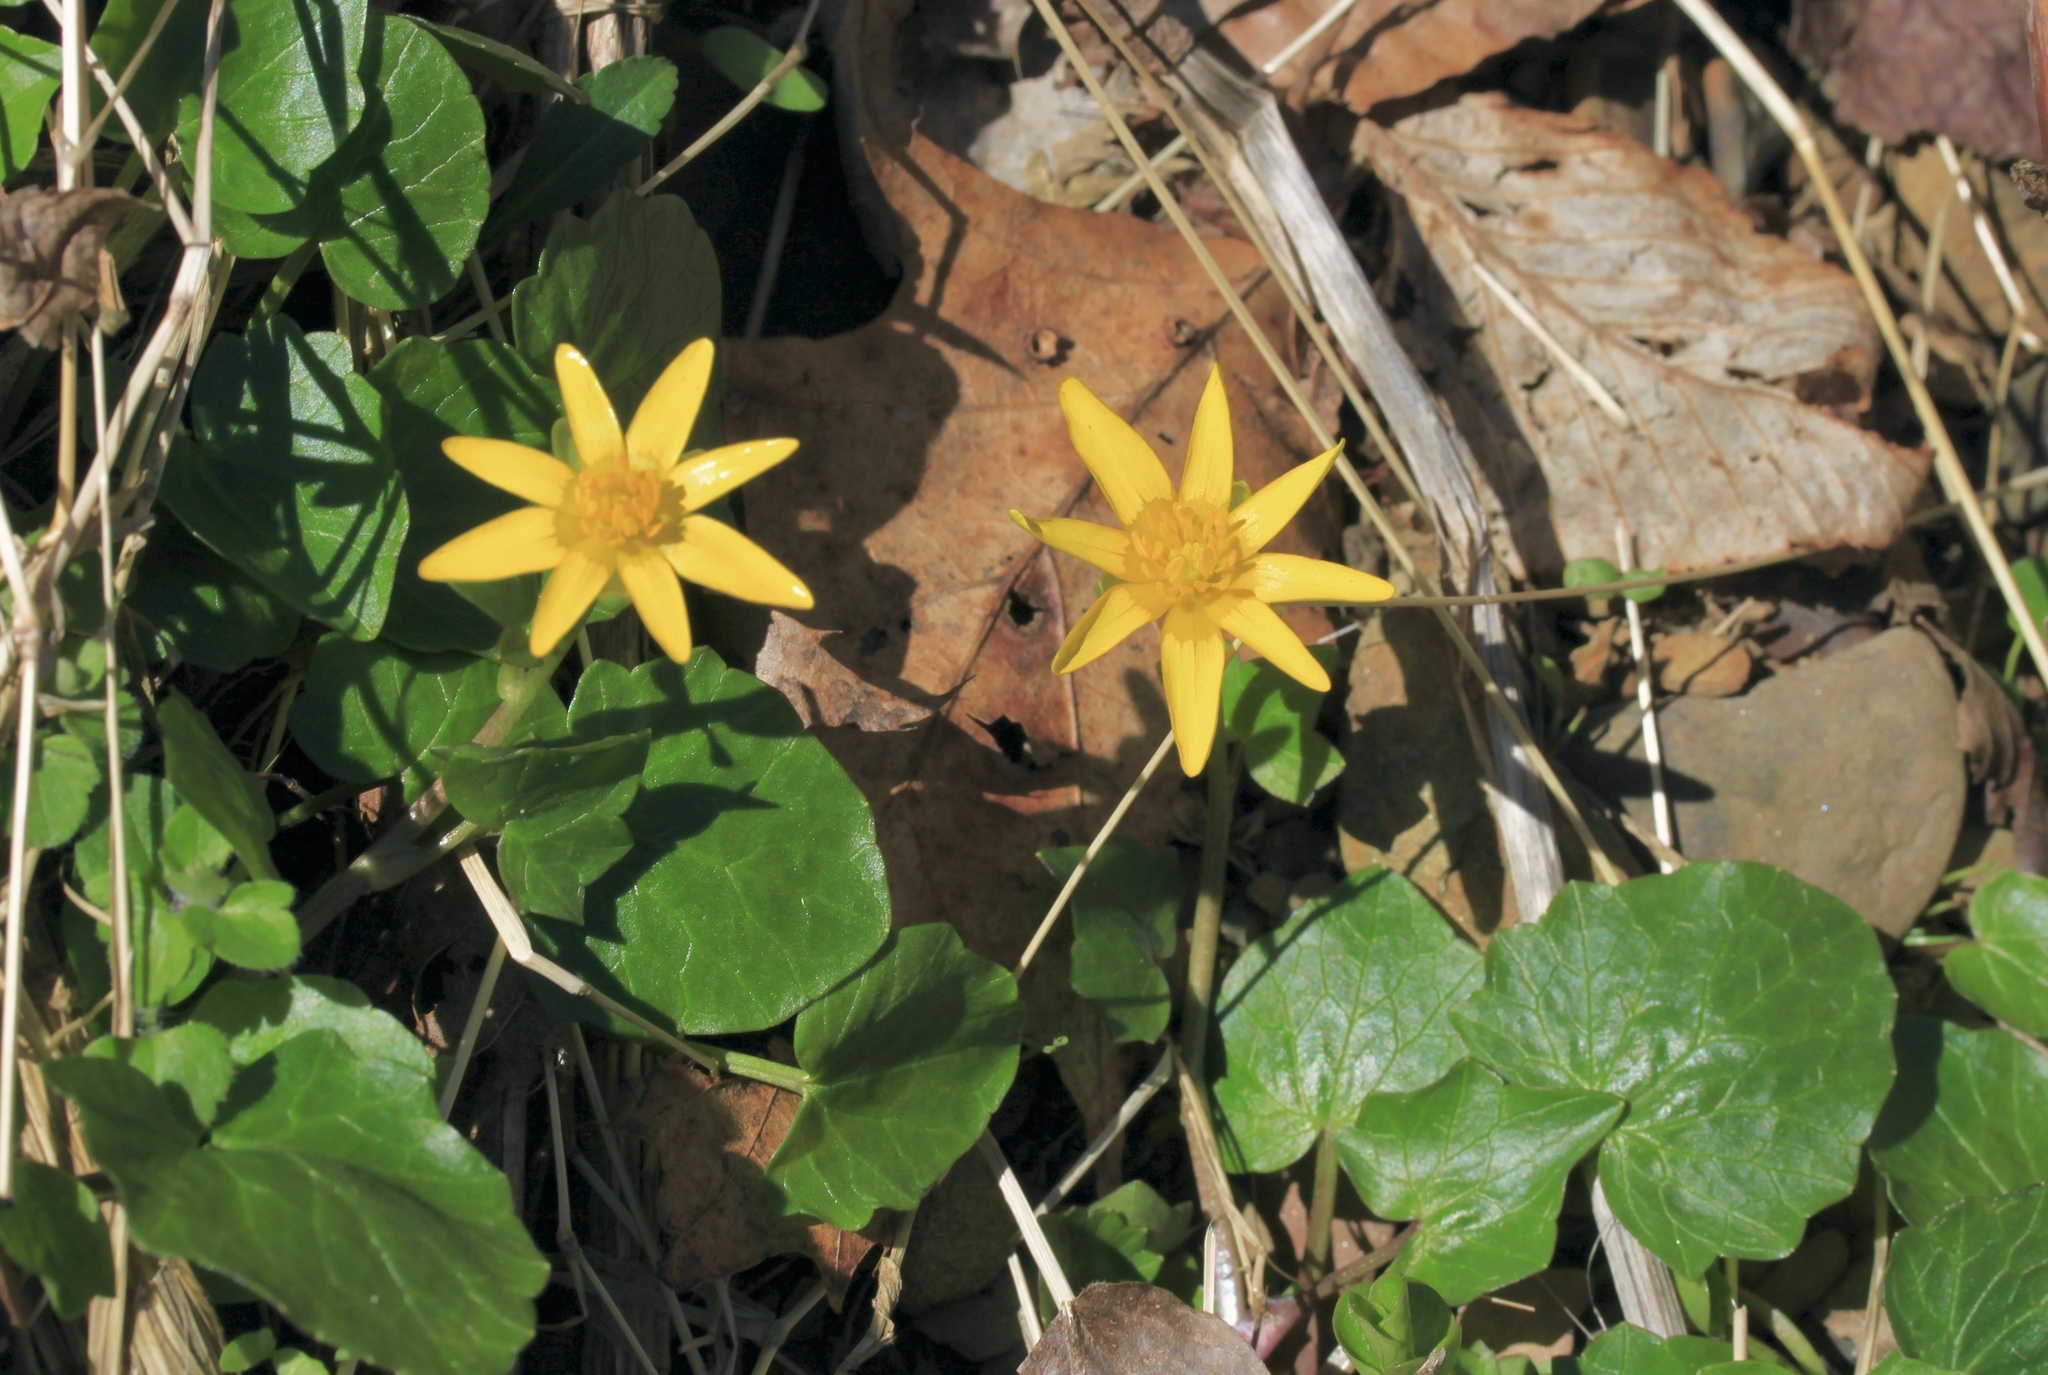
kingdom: Plantae
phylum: Tracheophyta
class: Magnoliopsida
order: Ranunculales
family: Ranunculaceae
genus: Ficaria
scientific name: Ficaria verna
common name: Lesser celandine
